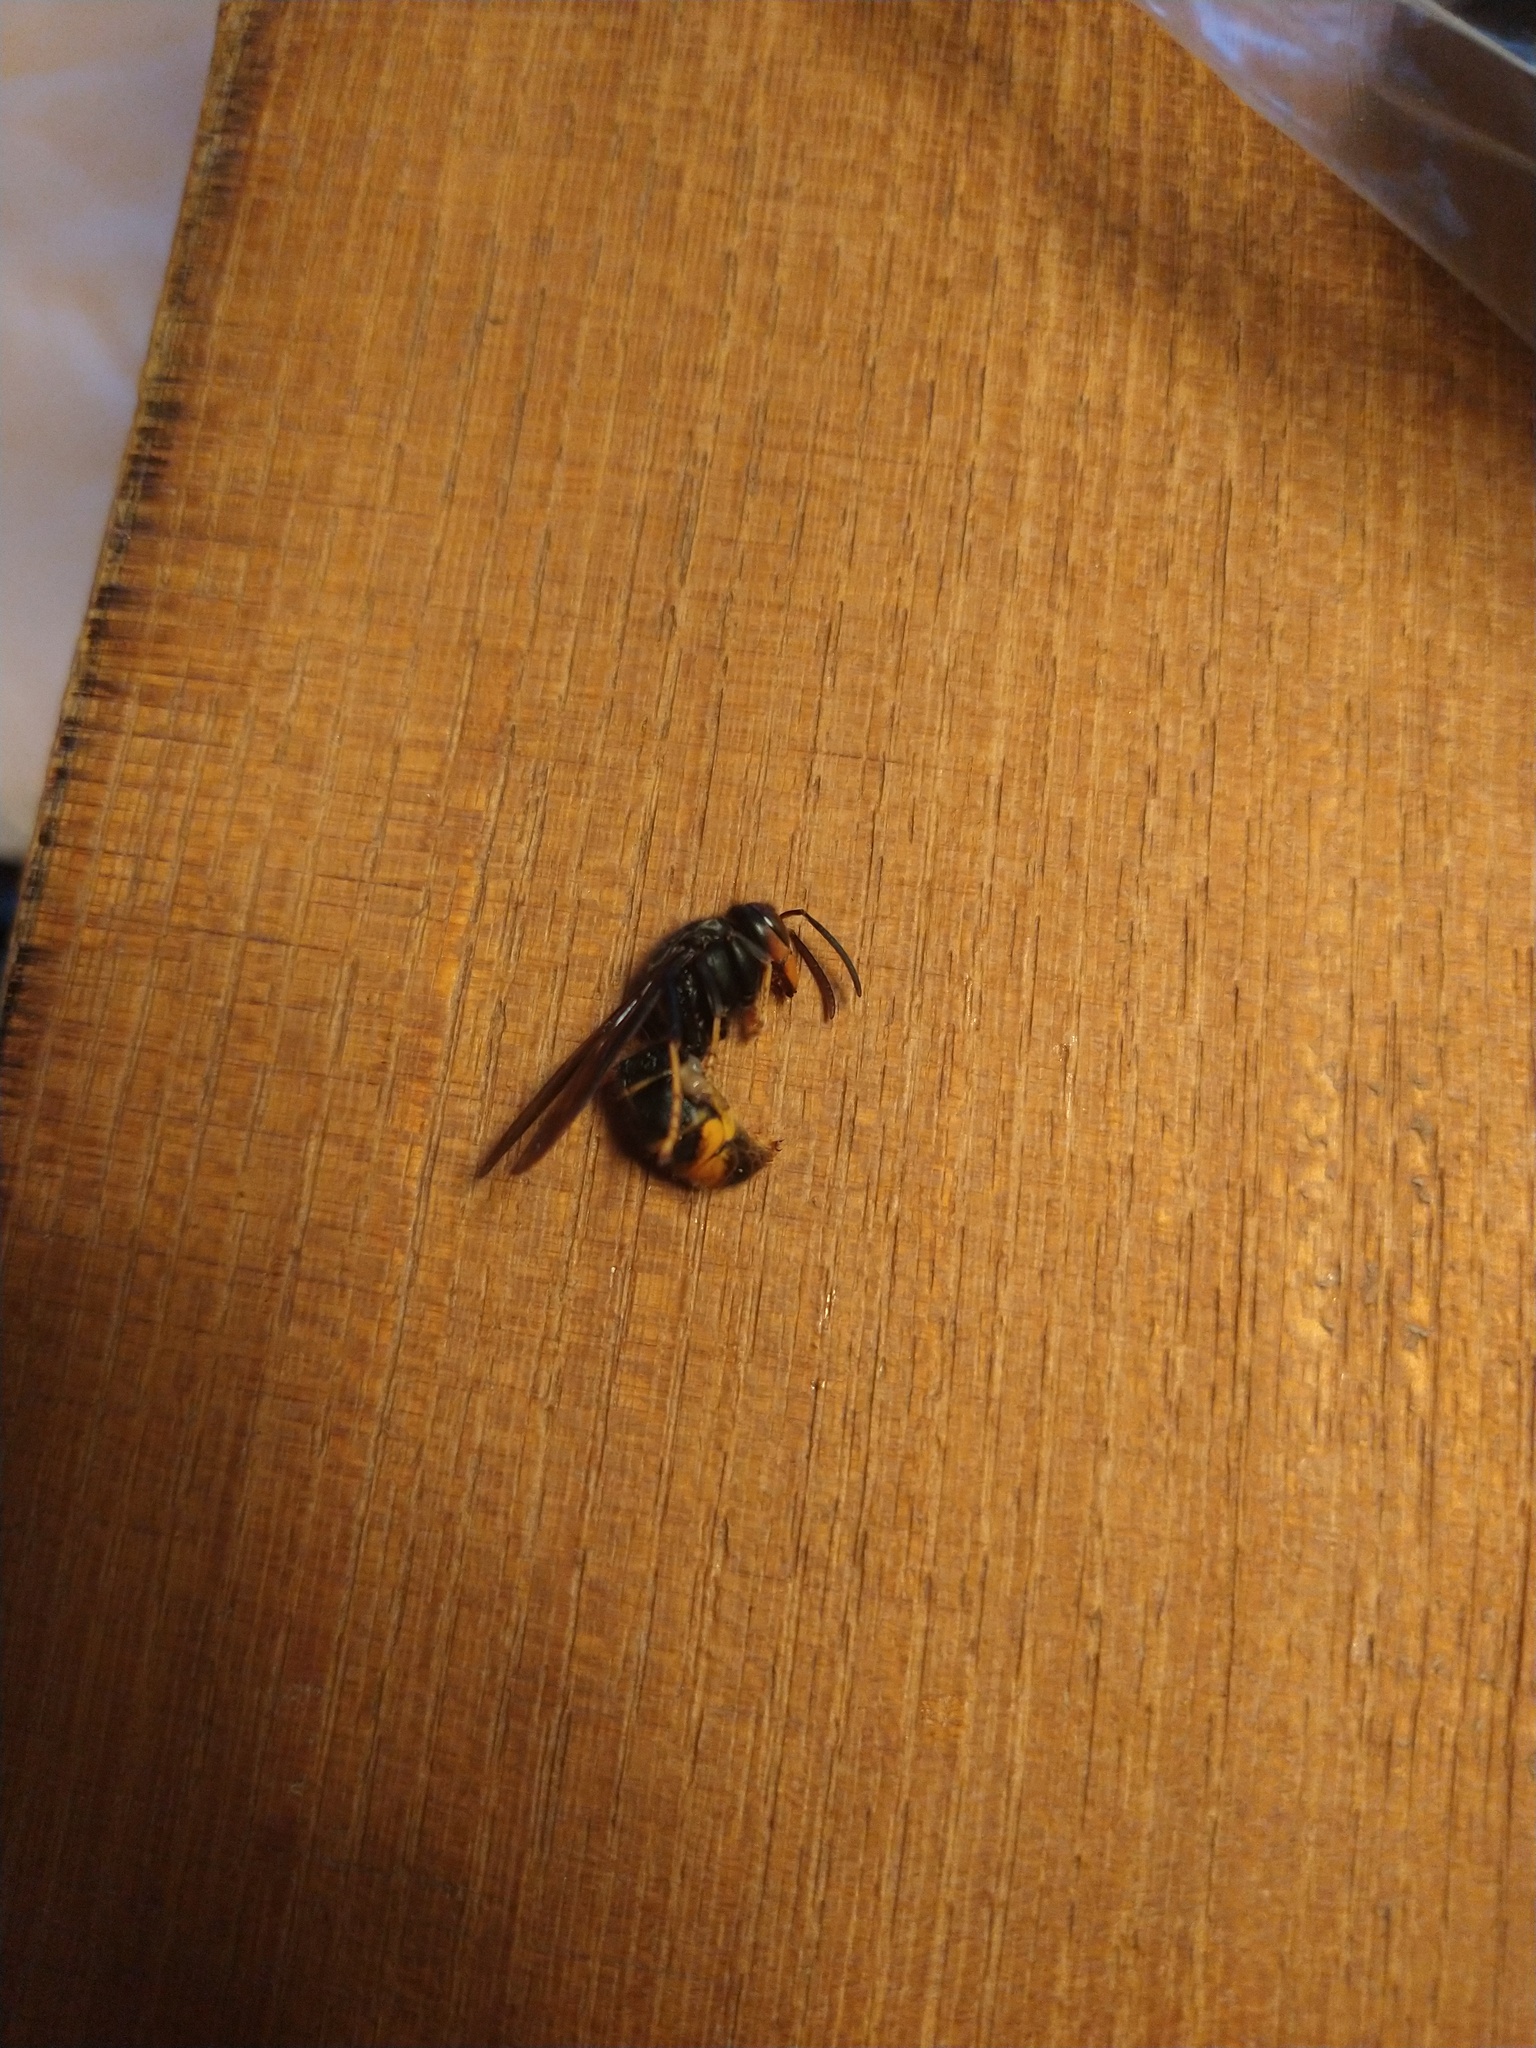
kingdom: Animalia
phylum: Arthropoda
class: Insecta
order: Hymenoptera
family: Vespidae
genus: Vespa
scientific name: Vespa velutina
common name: Asian hornet
